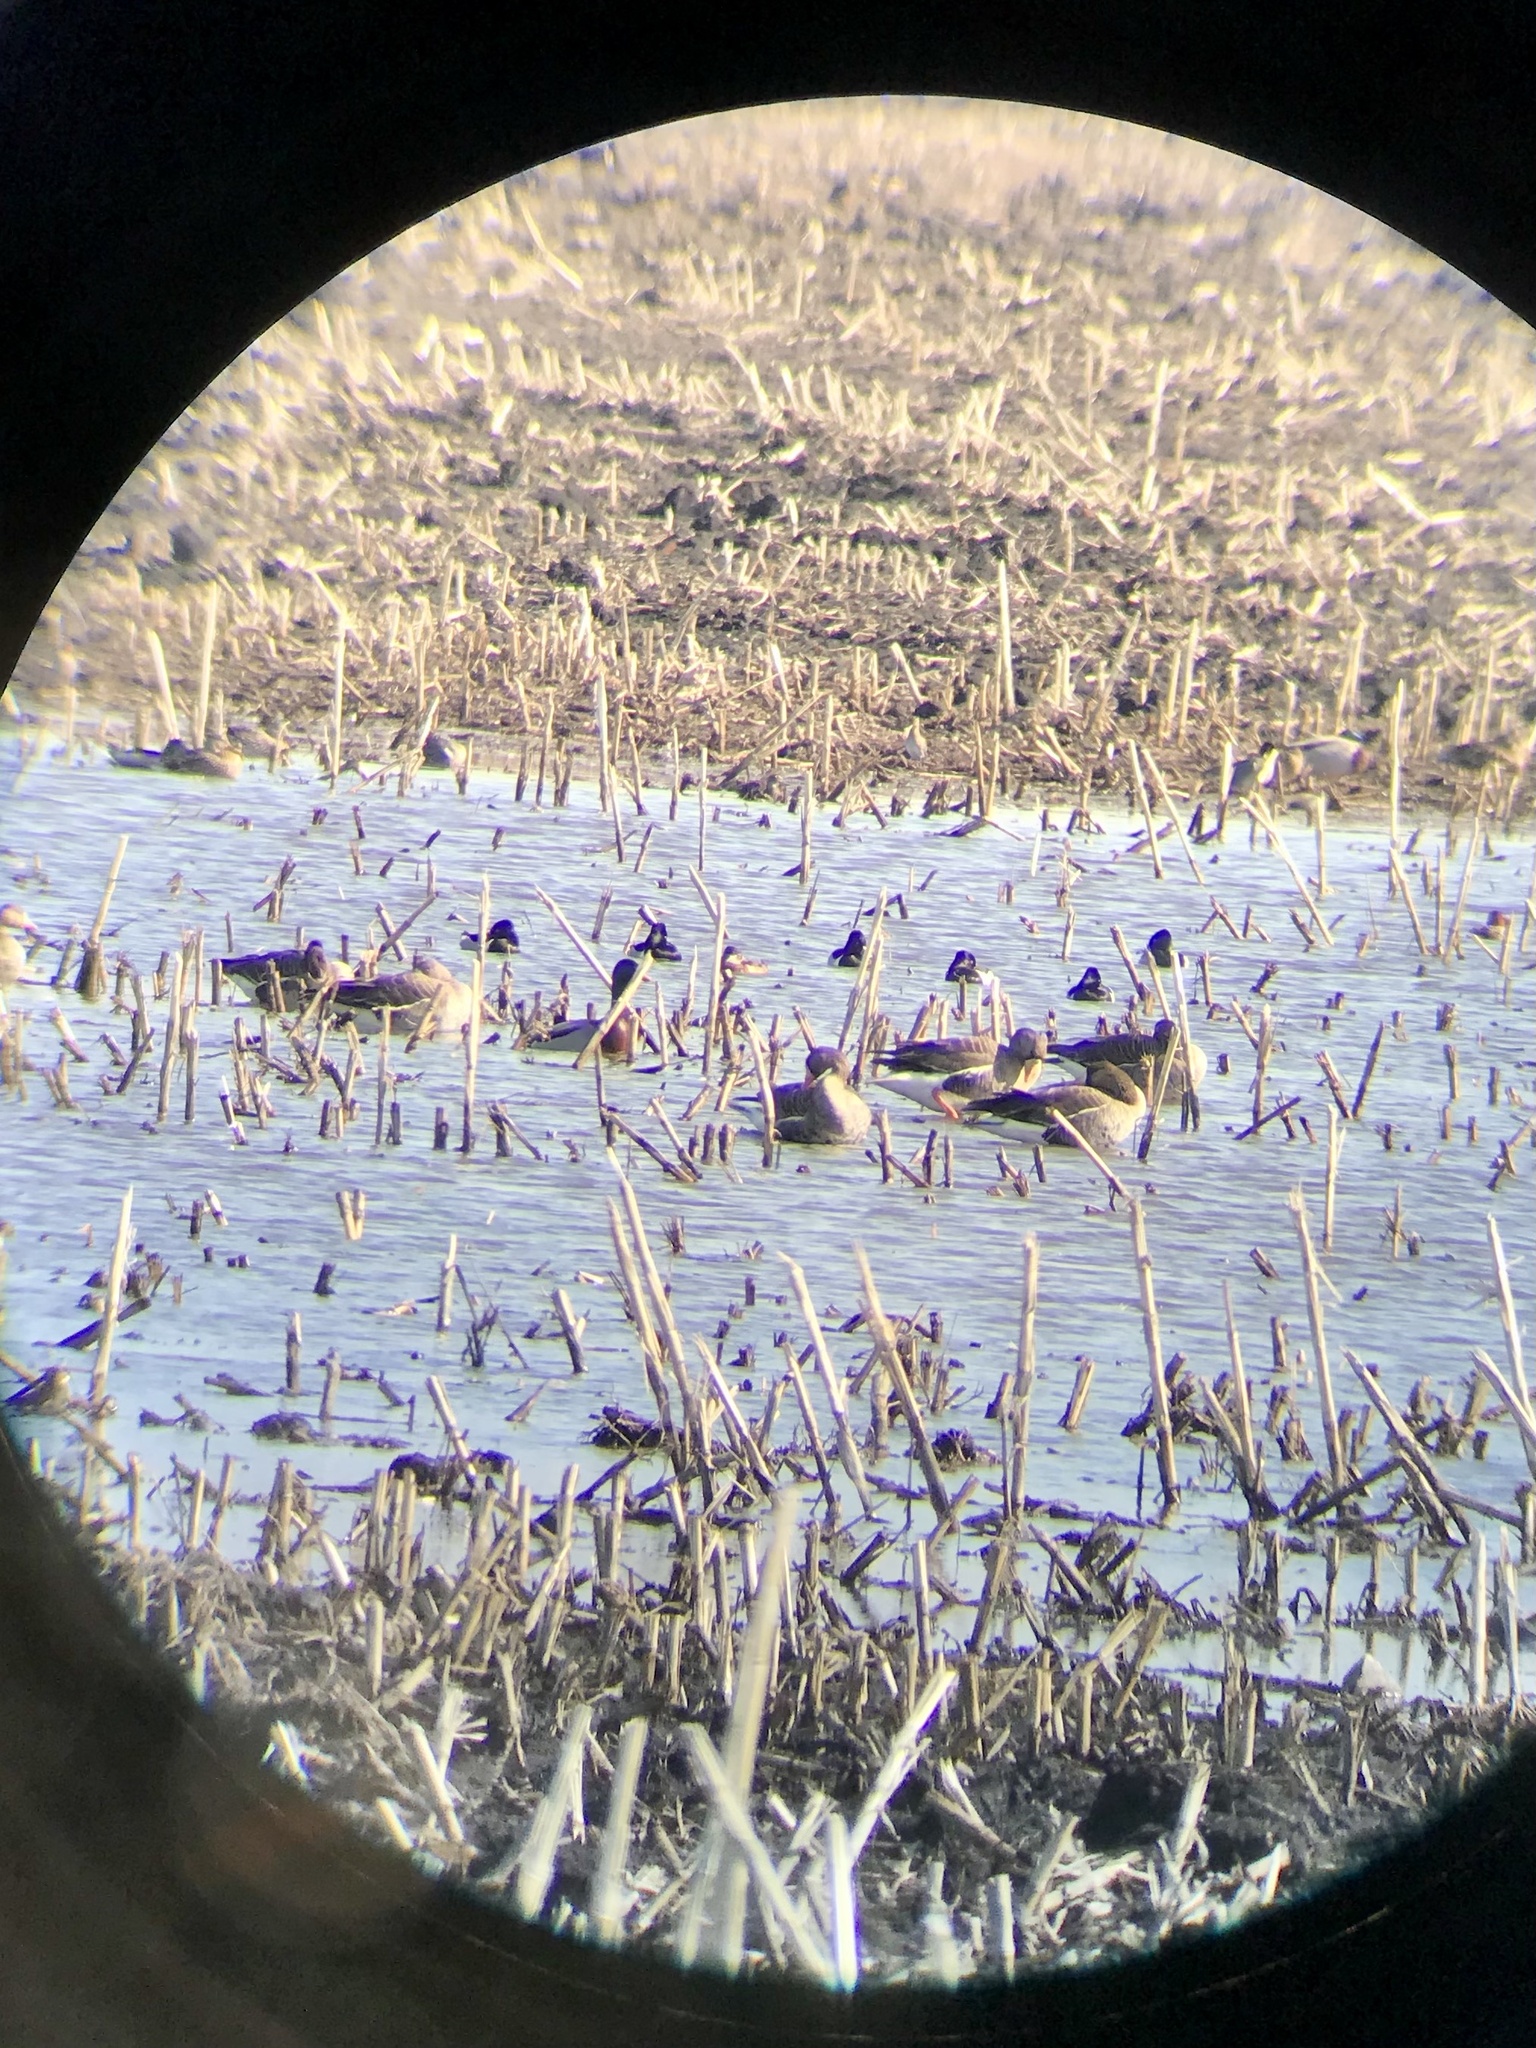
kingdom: Animalia
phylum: Chordata
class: Aves
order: Anseriformes
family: Anatidae
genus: Anser
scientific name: Anser albifrons
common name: Greater white-fronted goose
